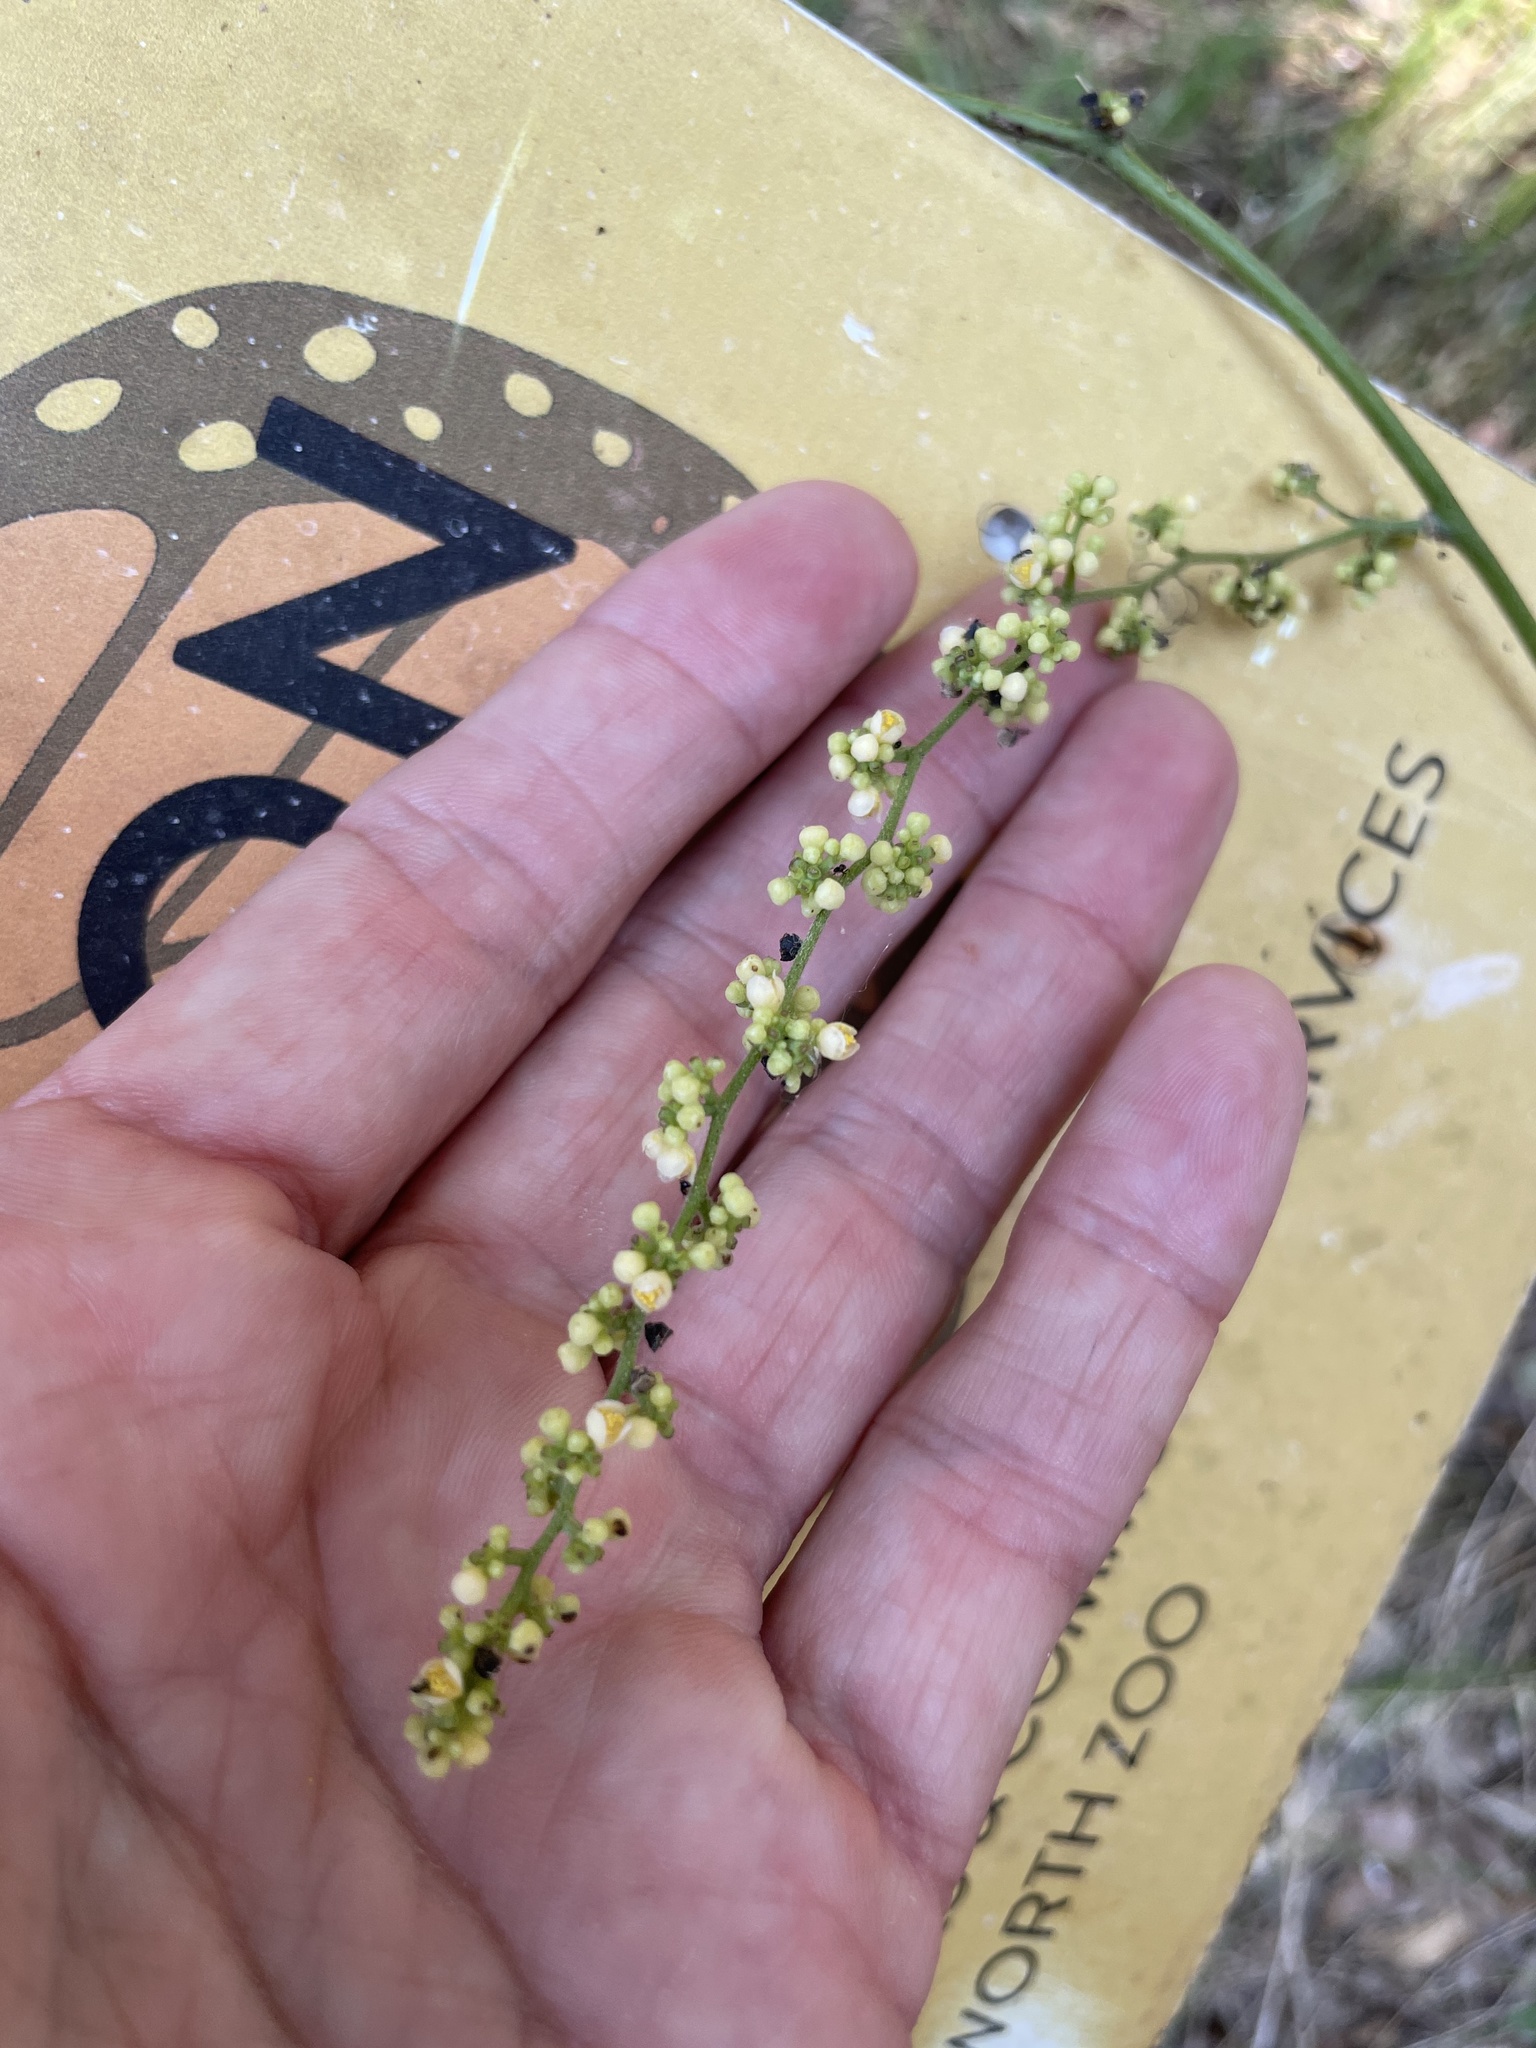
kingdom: Plantae
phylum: Tracheophyta
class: Magnoliopsida
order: Ranunculales
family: Menispermaceae
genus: Cocculus
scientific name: Cocculus carolinus
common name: Carolina moonseed
